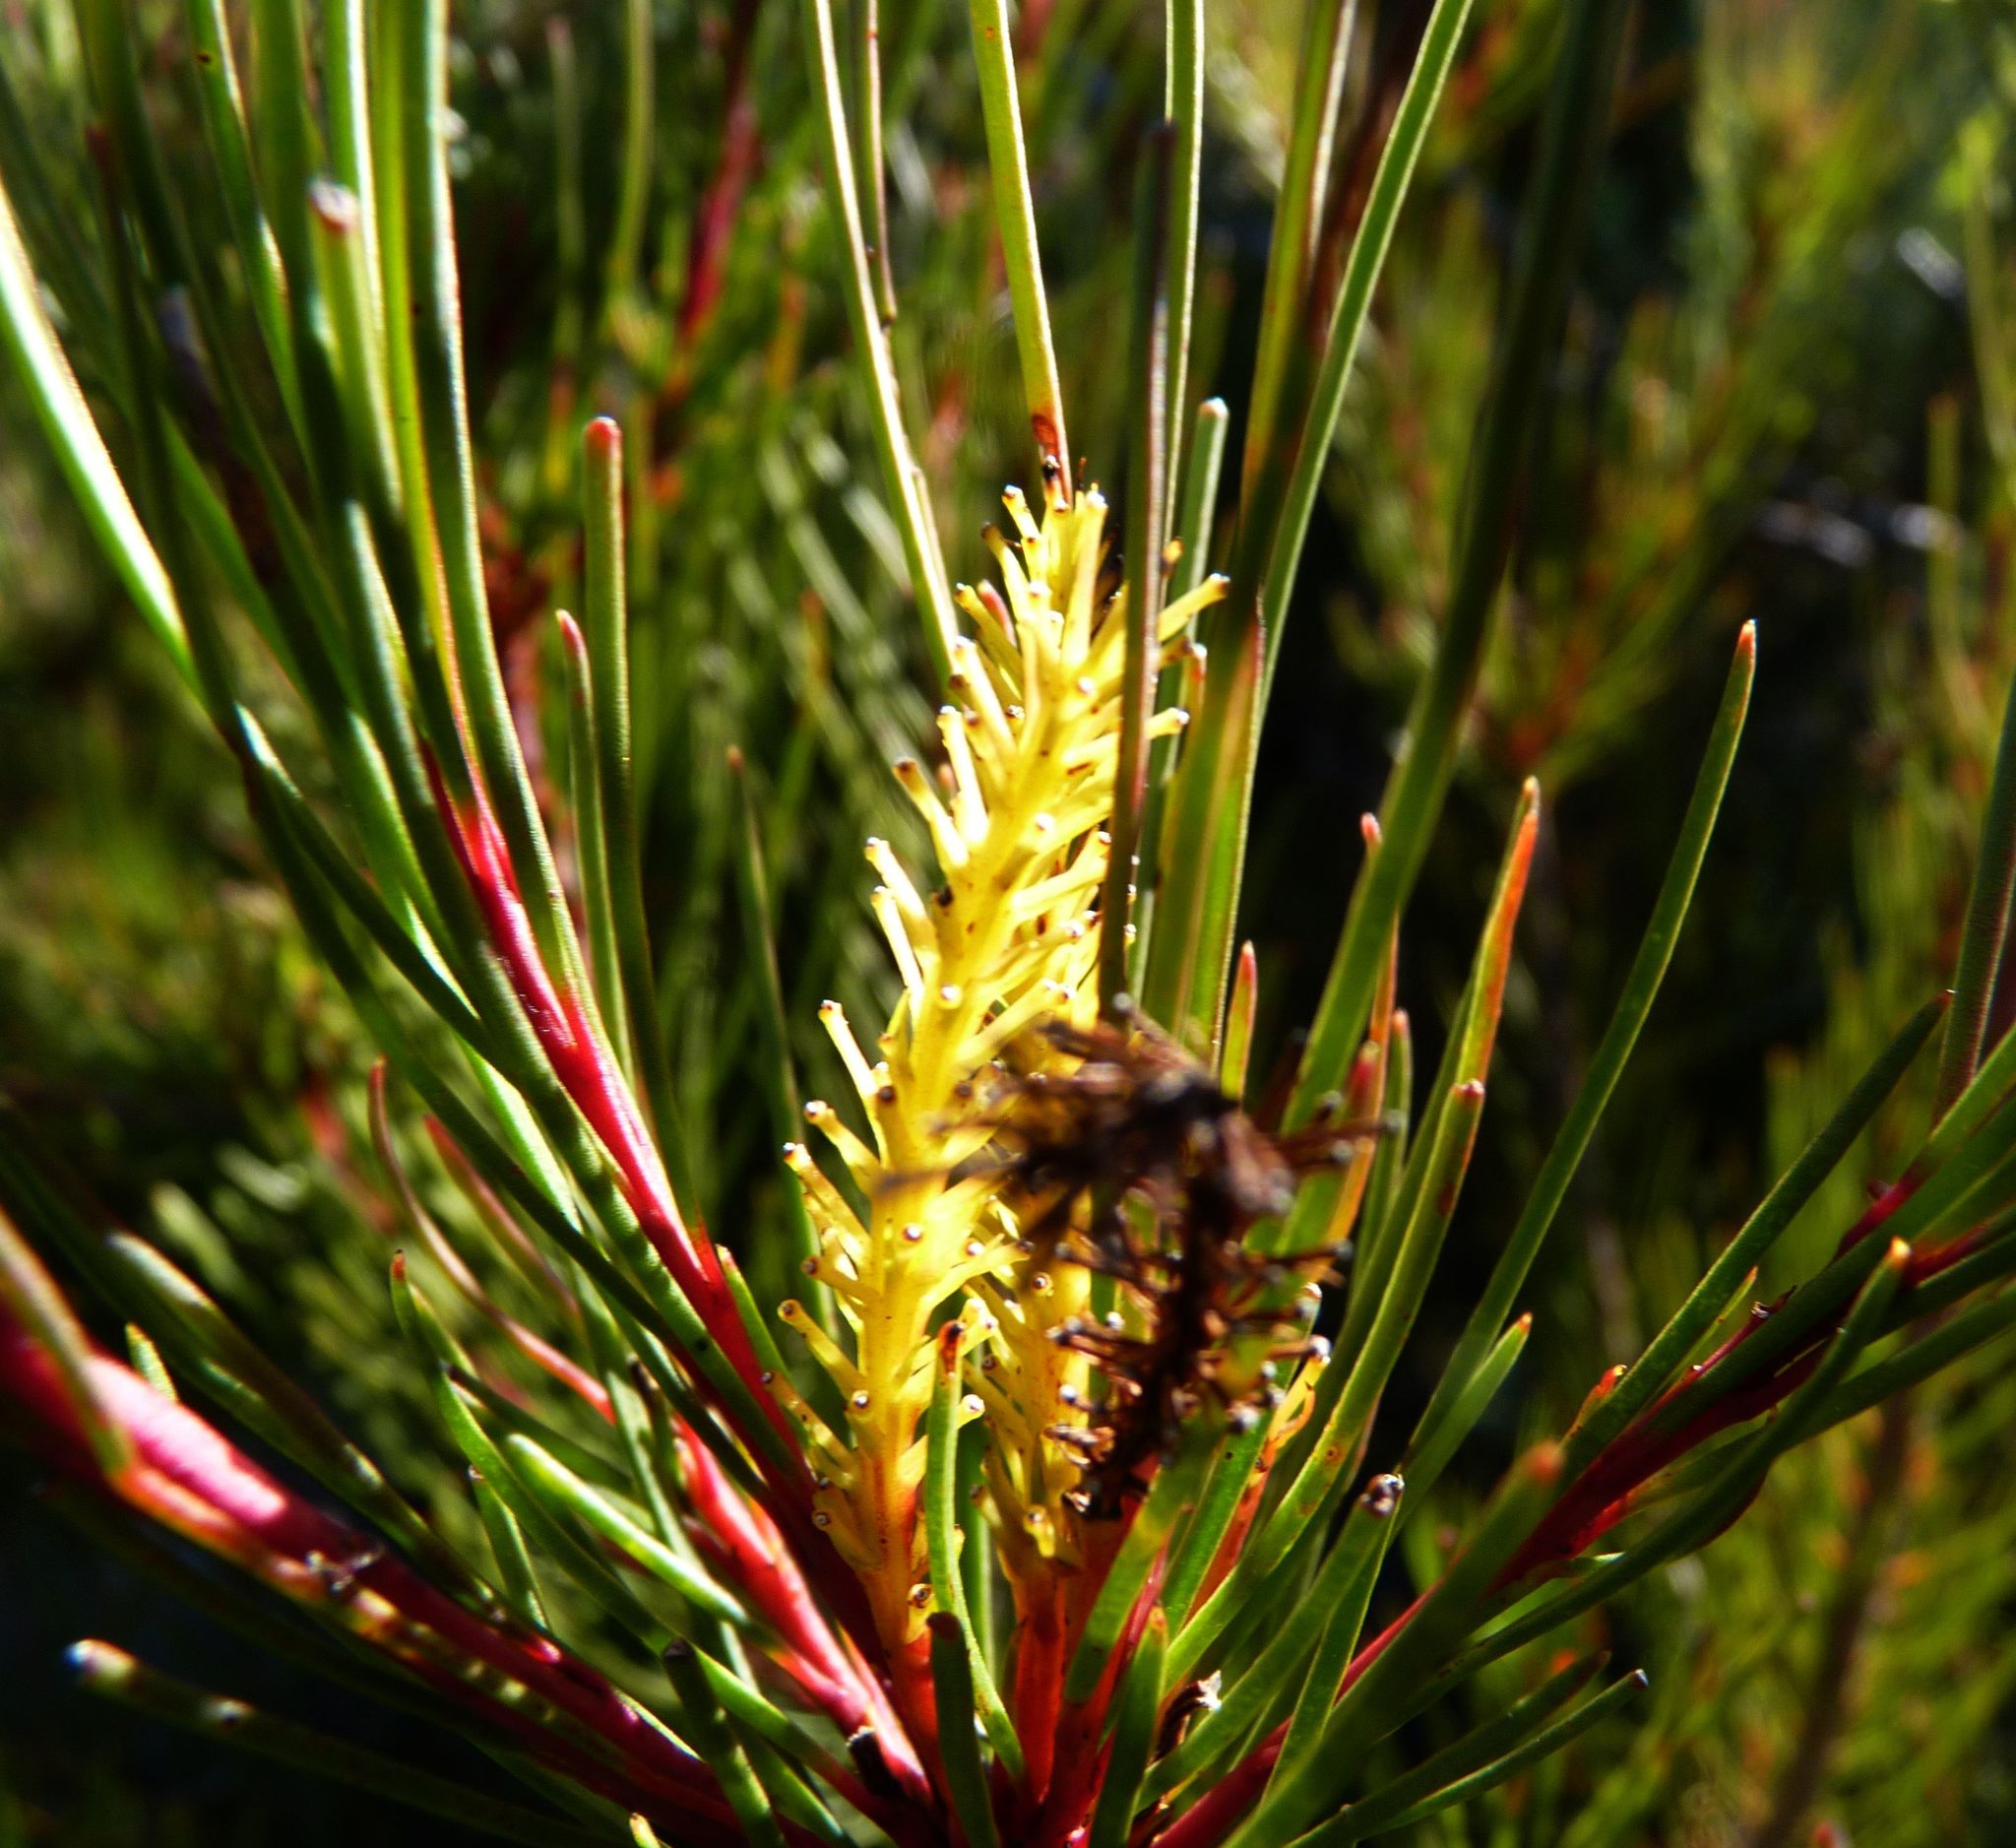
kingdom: Plantae
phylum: Tracheophyta
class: Magnoliopsida
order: Proteales
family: Proteaceae
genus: Aulax
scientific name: Aulax cancellata
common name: Channel-leaf featherbush
